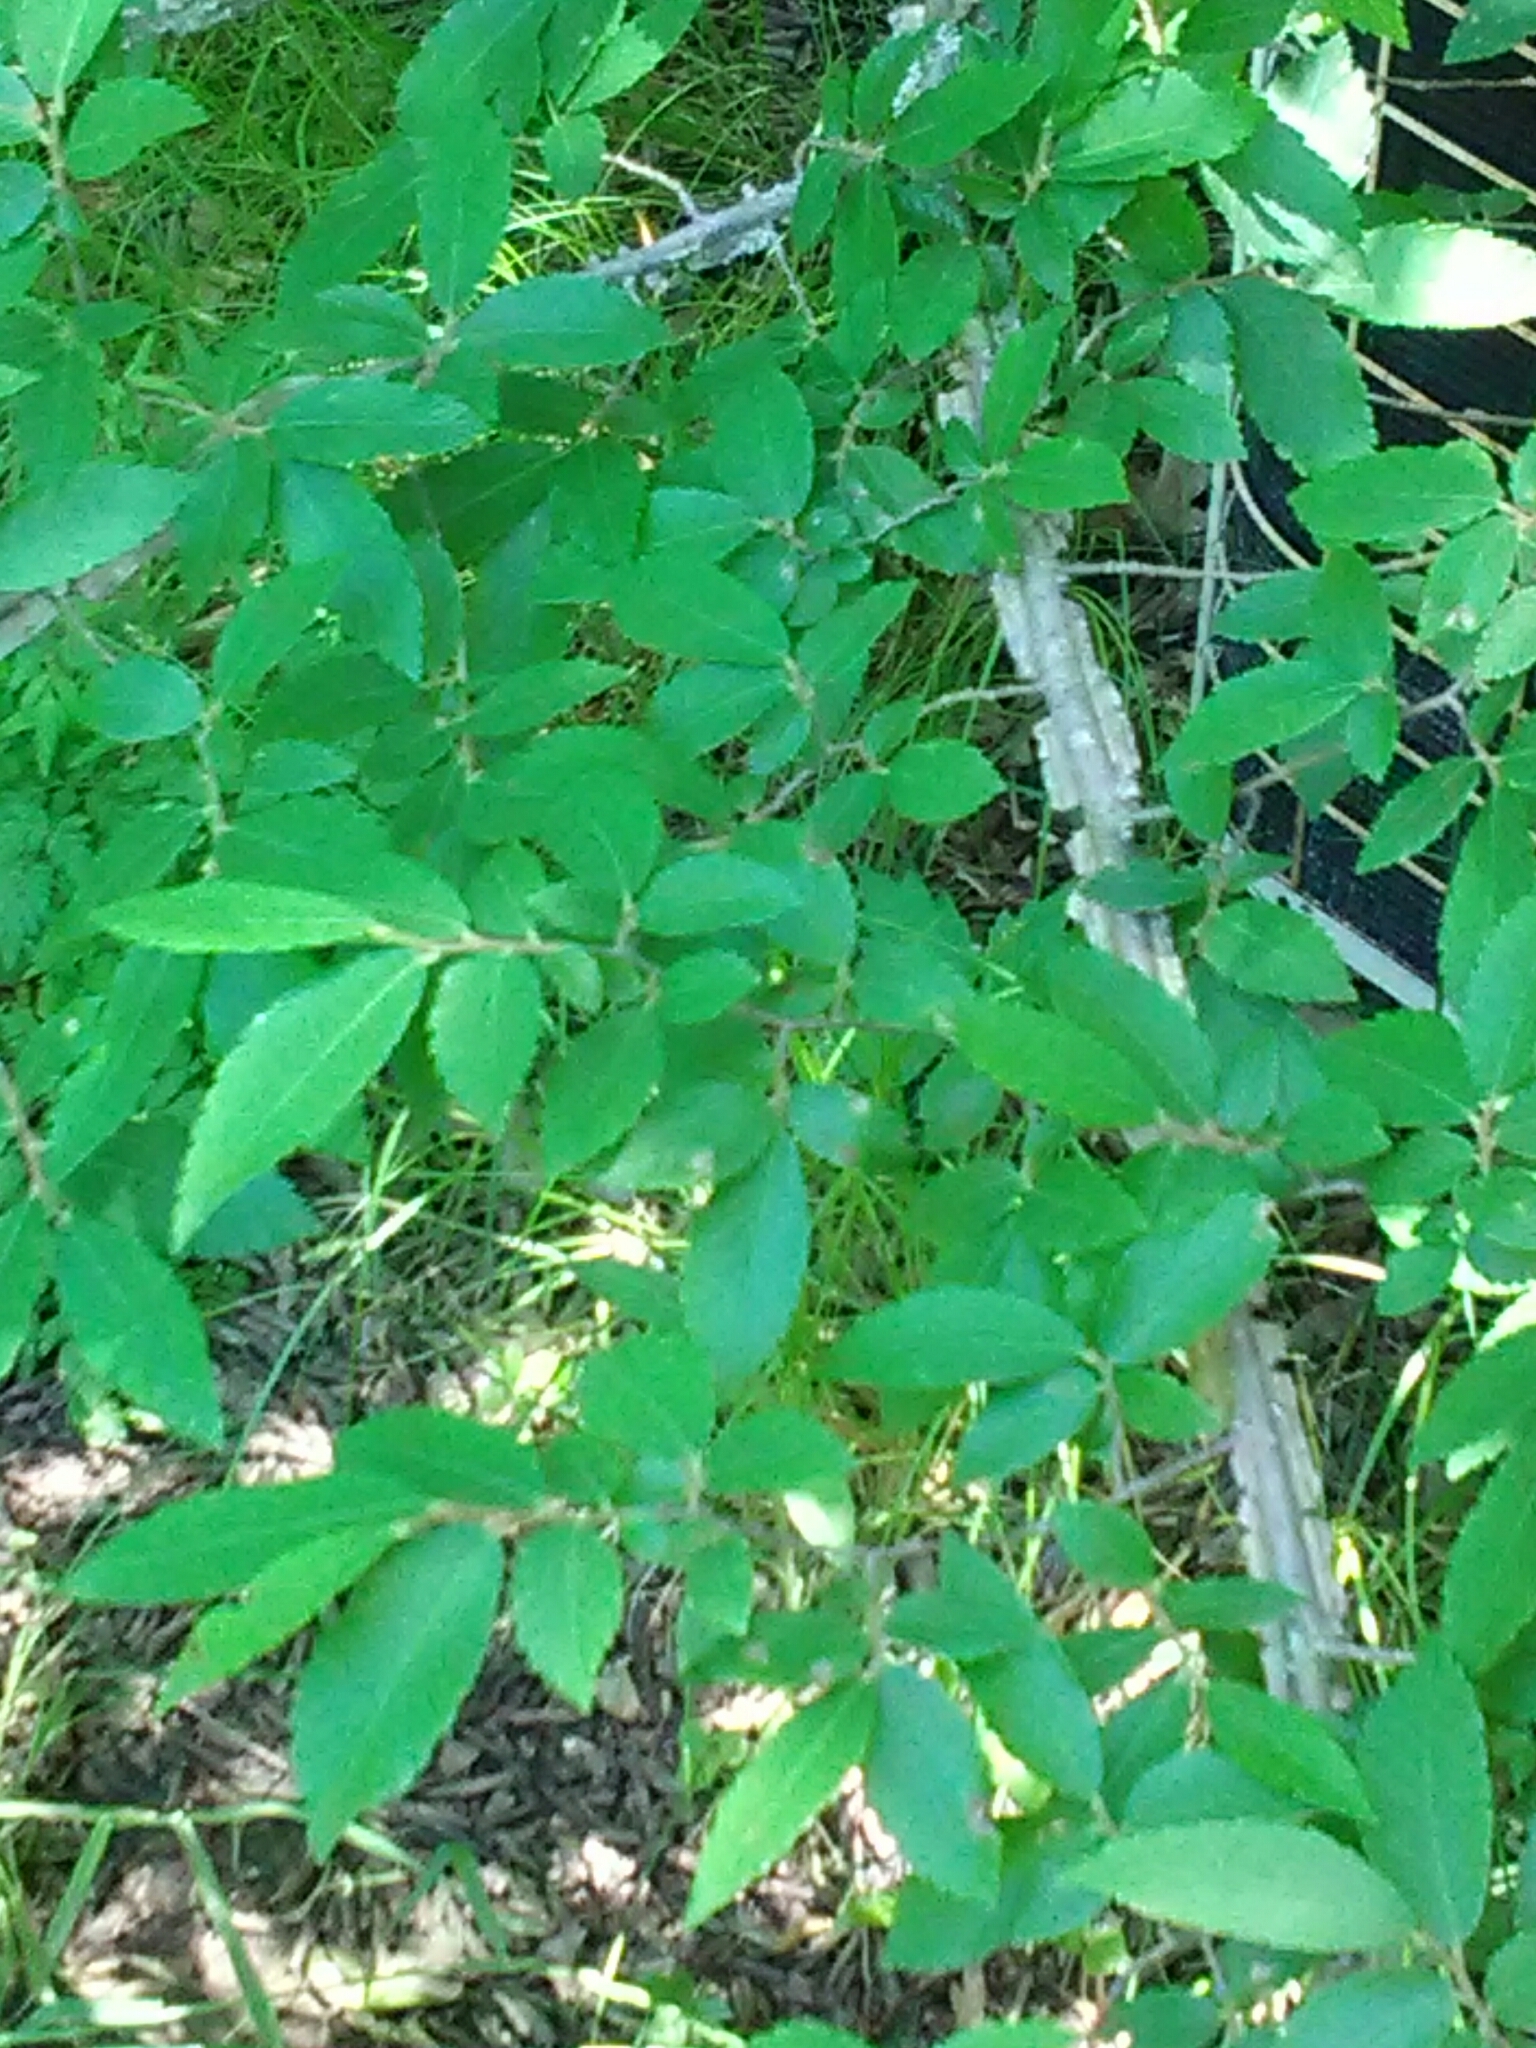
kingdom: Plantae
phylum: Tracheophyta
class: Magnoliopsida
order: Rosales
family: Ulmaceae
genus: Ulmus
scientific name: Ulmus alata
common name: Winged elm
